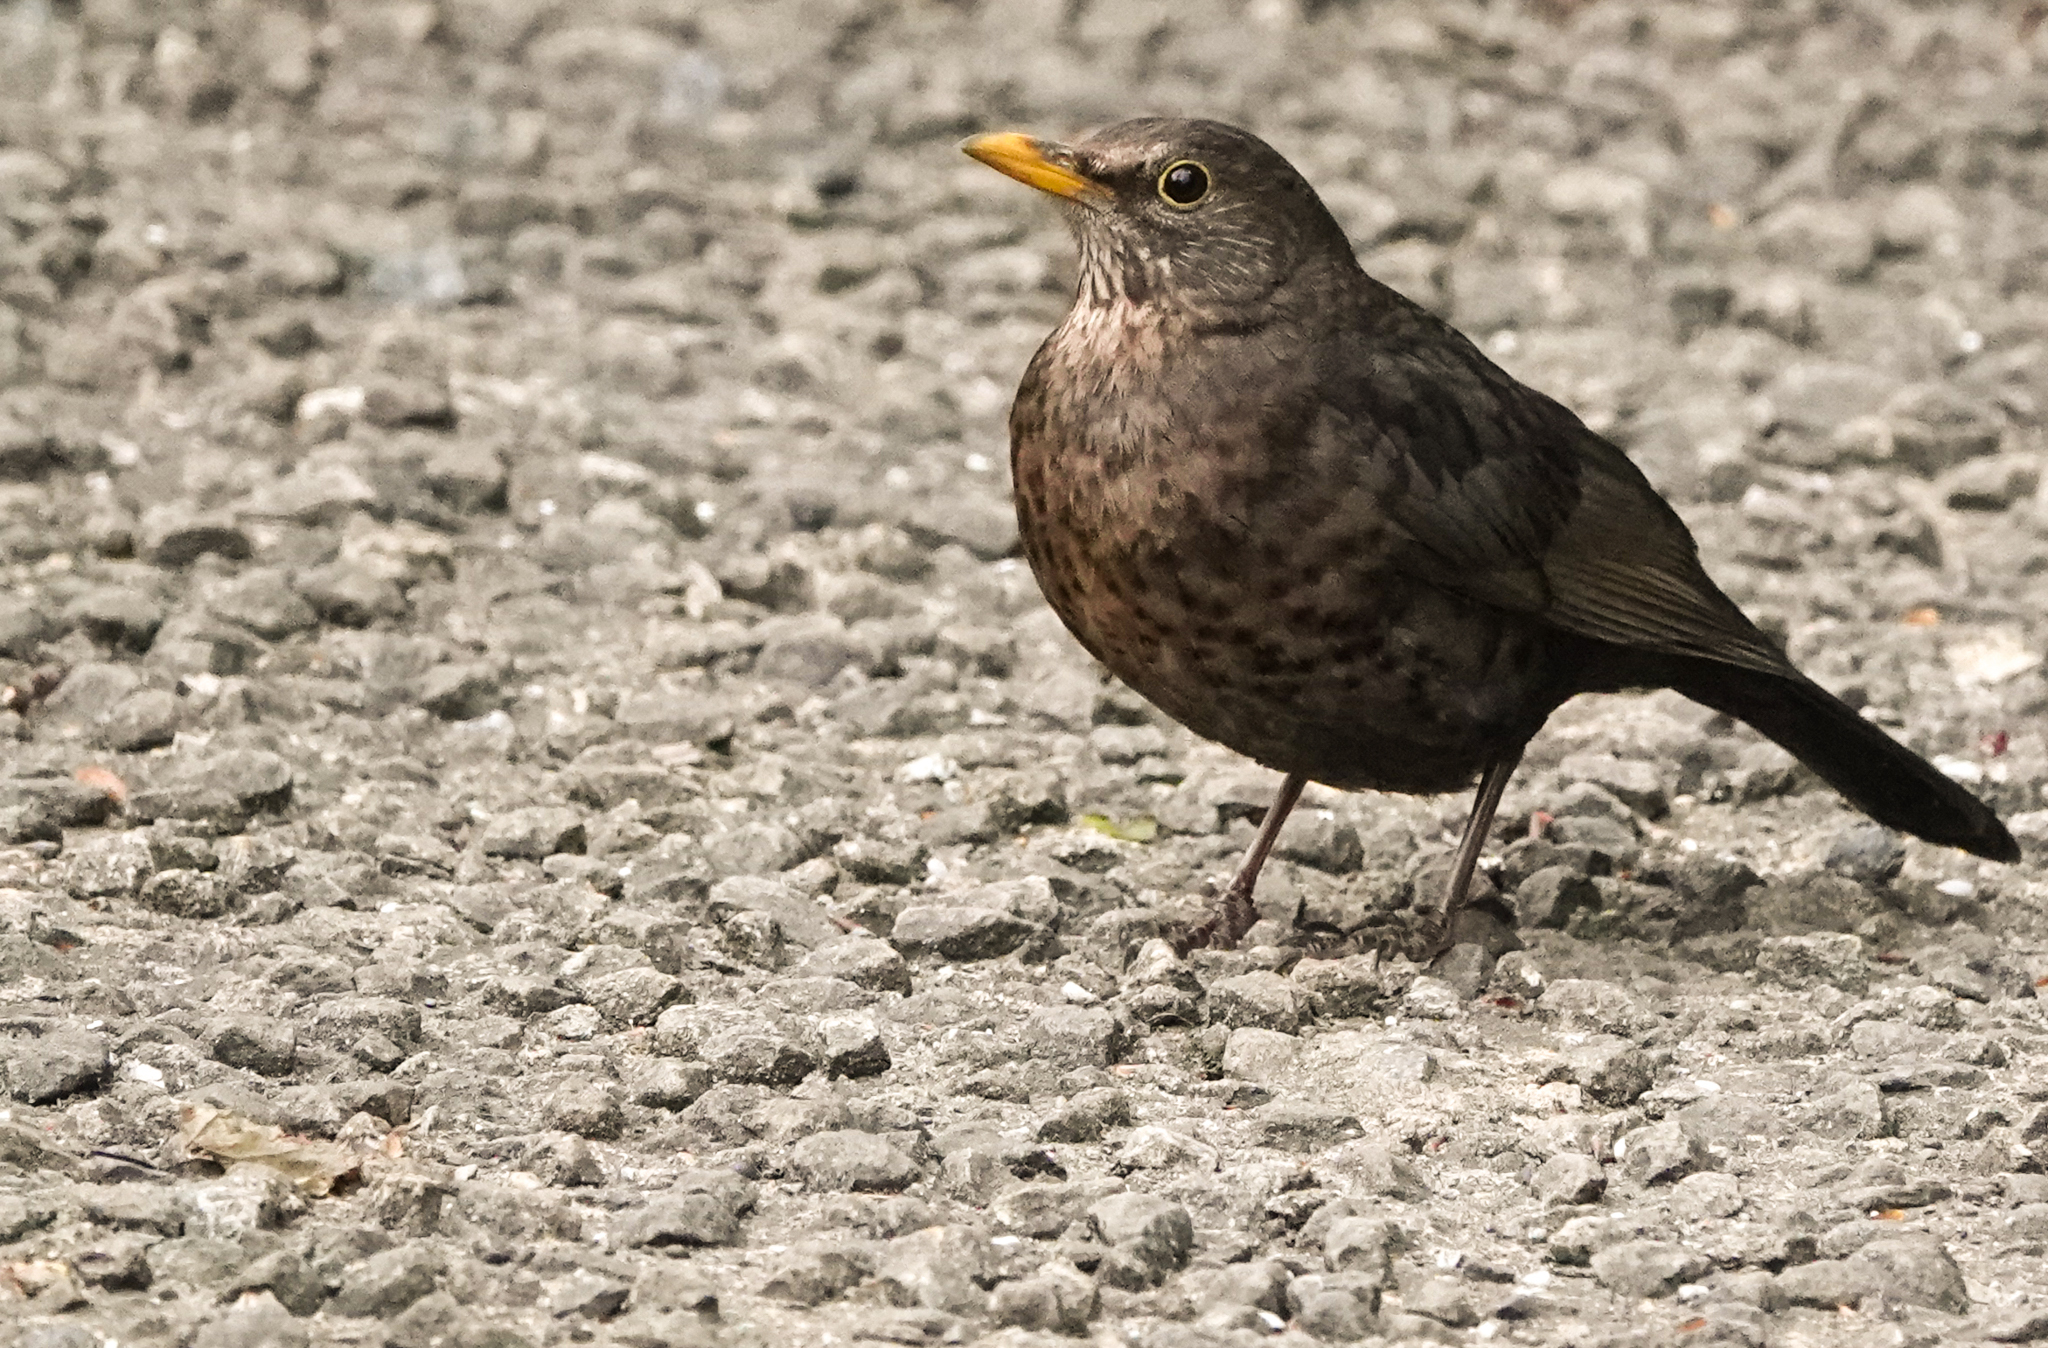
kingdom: Animalia
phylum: Chordata
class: Aves
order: Passeriformes
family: Turdidae
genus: Turdus
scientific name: Turdus merula
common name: Common blackbird
